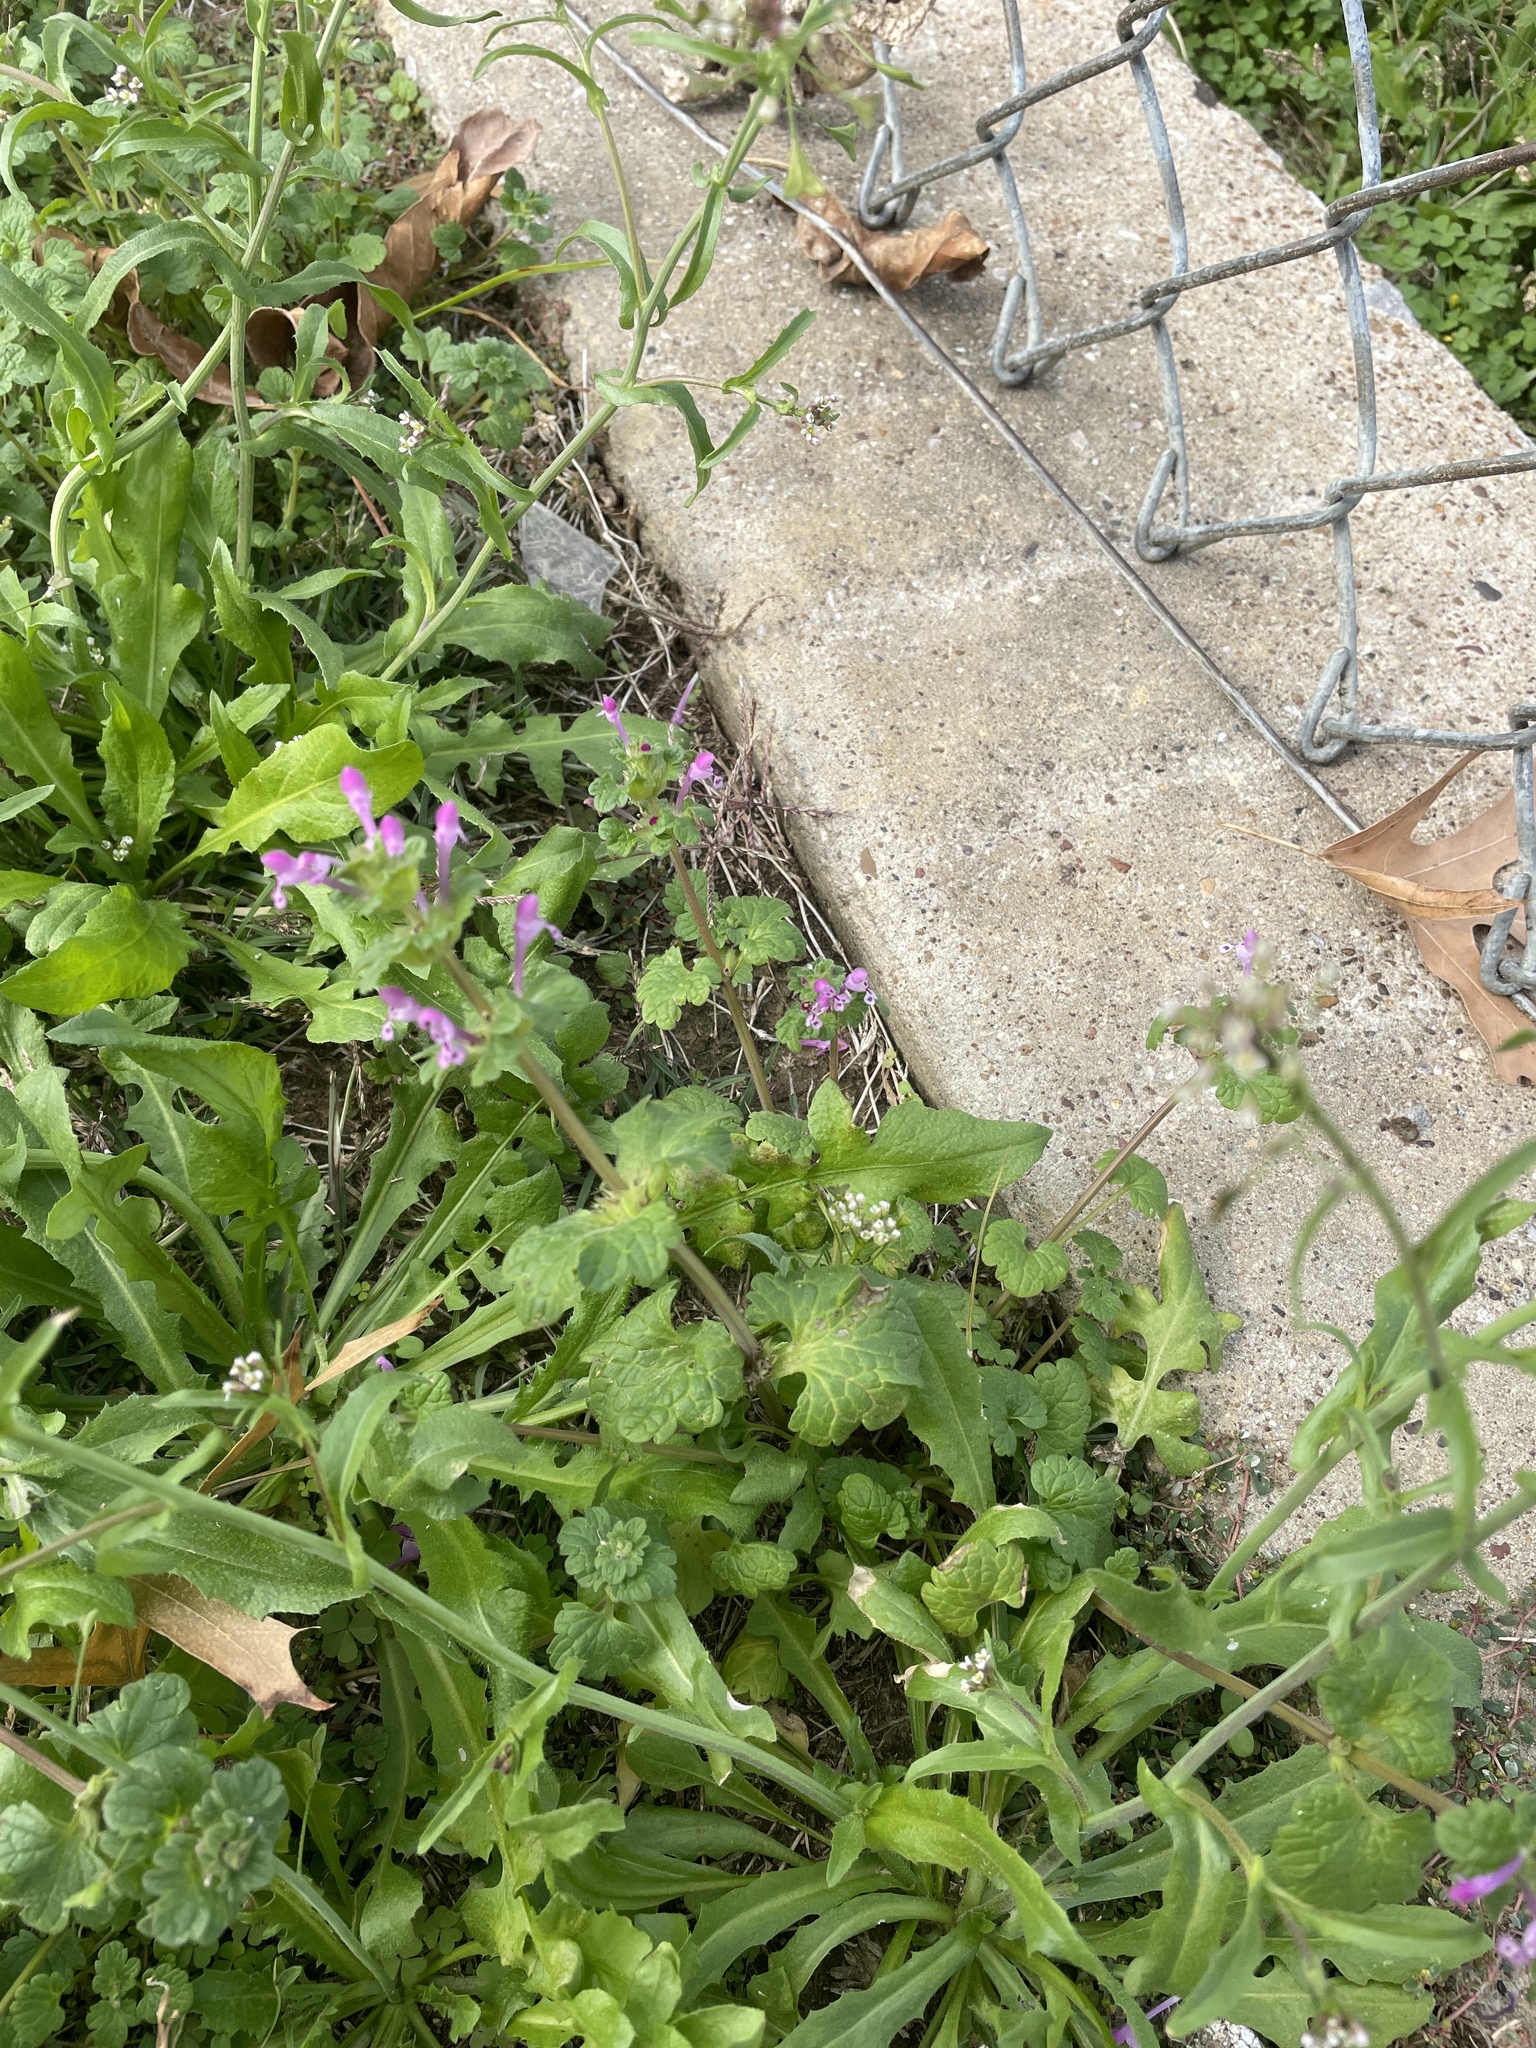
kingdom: Plantae
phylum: Tracheophyta
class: Magnoliopsida
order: Lamiales
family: Lamiaceae
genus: Lamium
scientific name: Lamium amplexicaule
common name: Henbit dead-nettle
